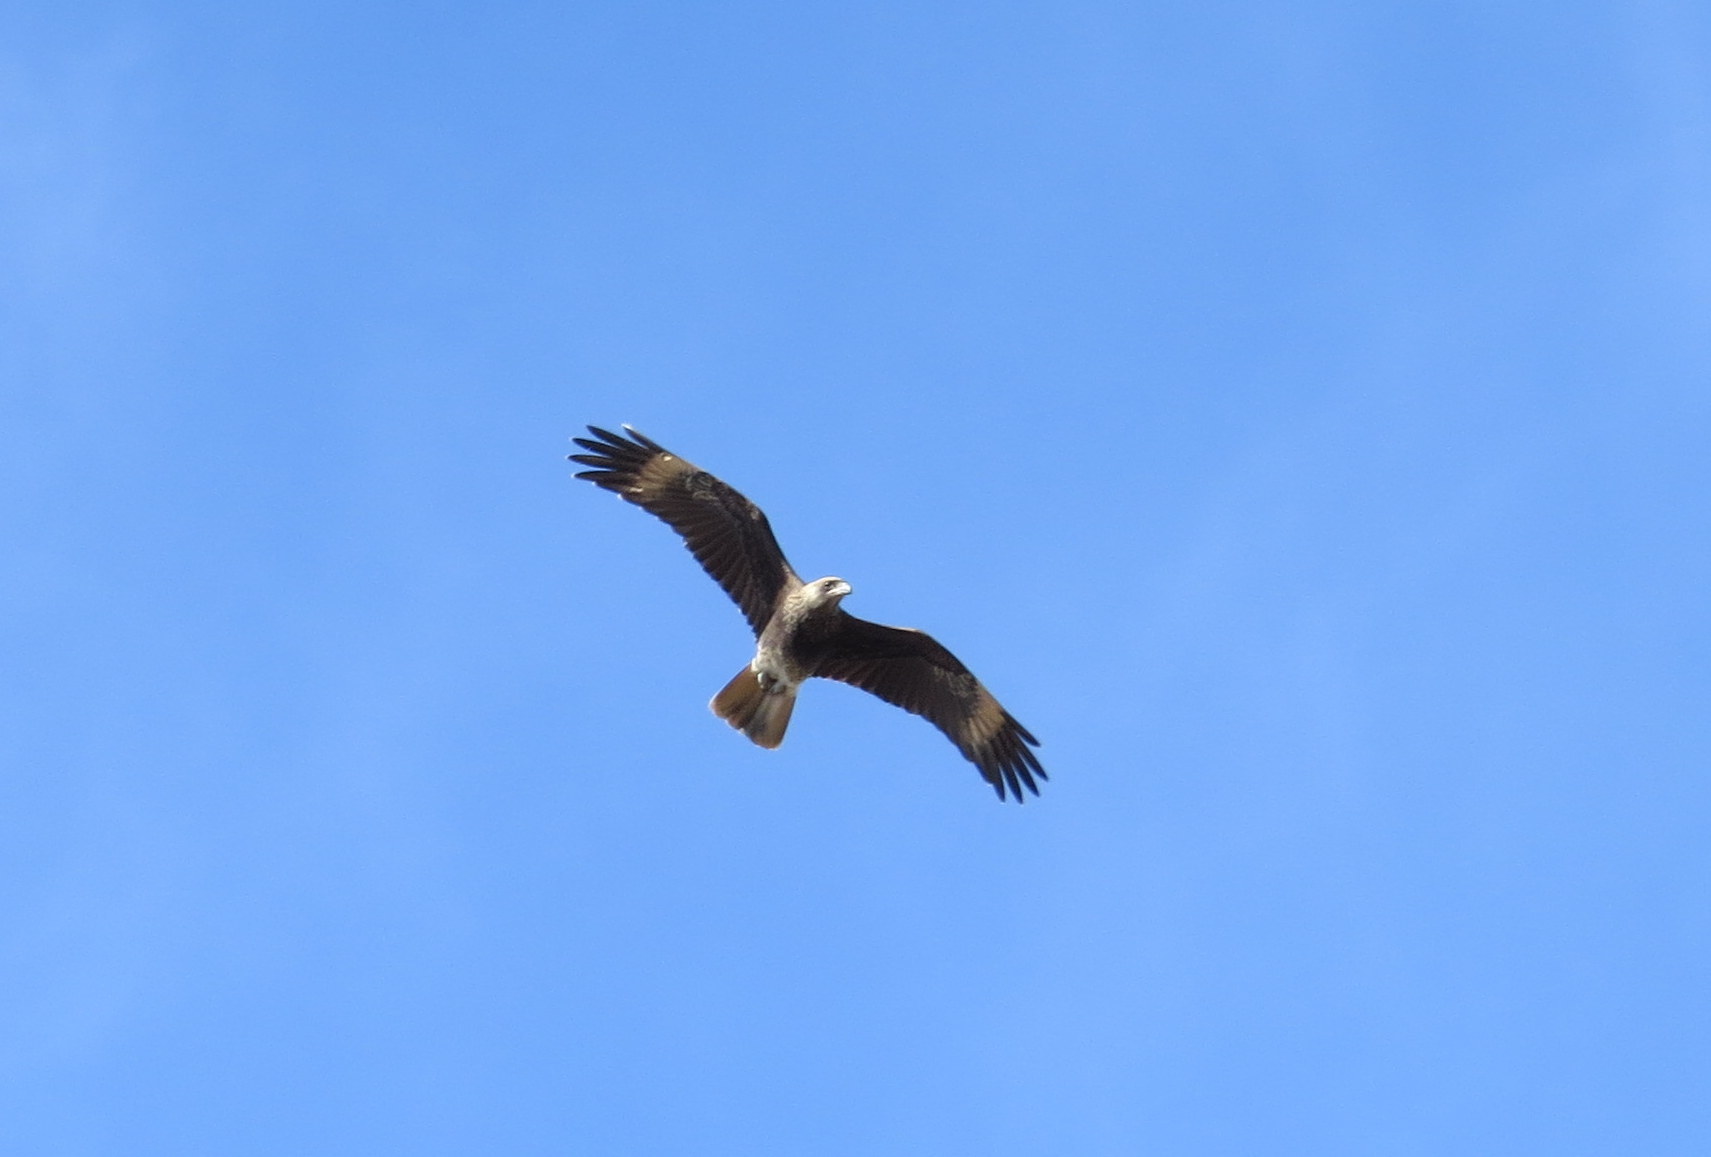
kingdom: Animalia
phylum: Chordata
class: Aves
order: Falconiformes
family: Falconidae
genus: Daptrius
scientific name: Daptrius
